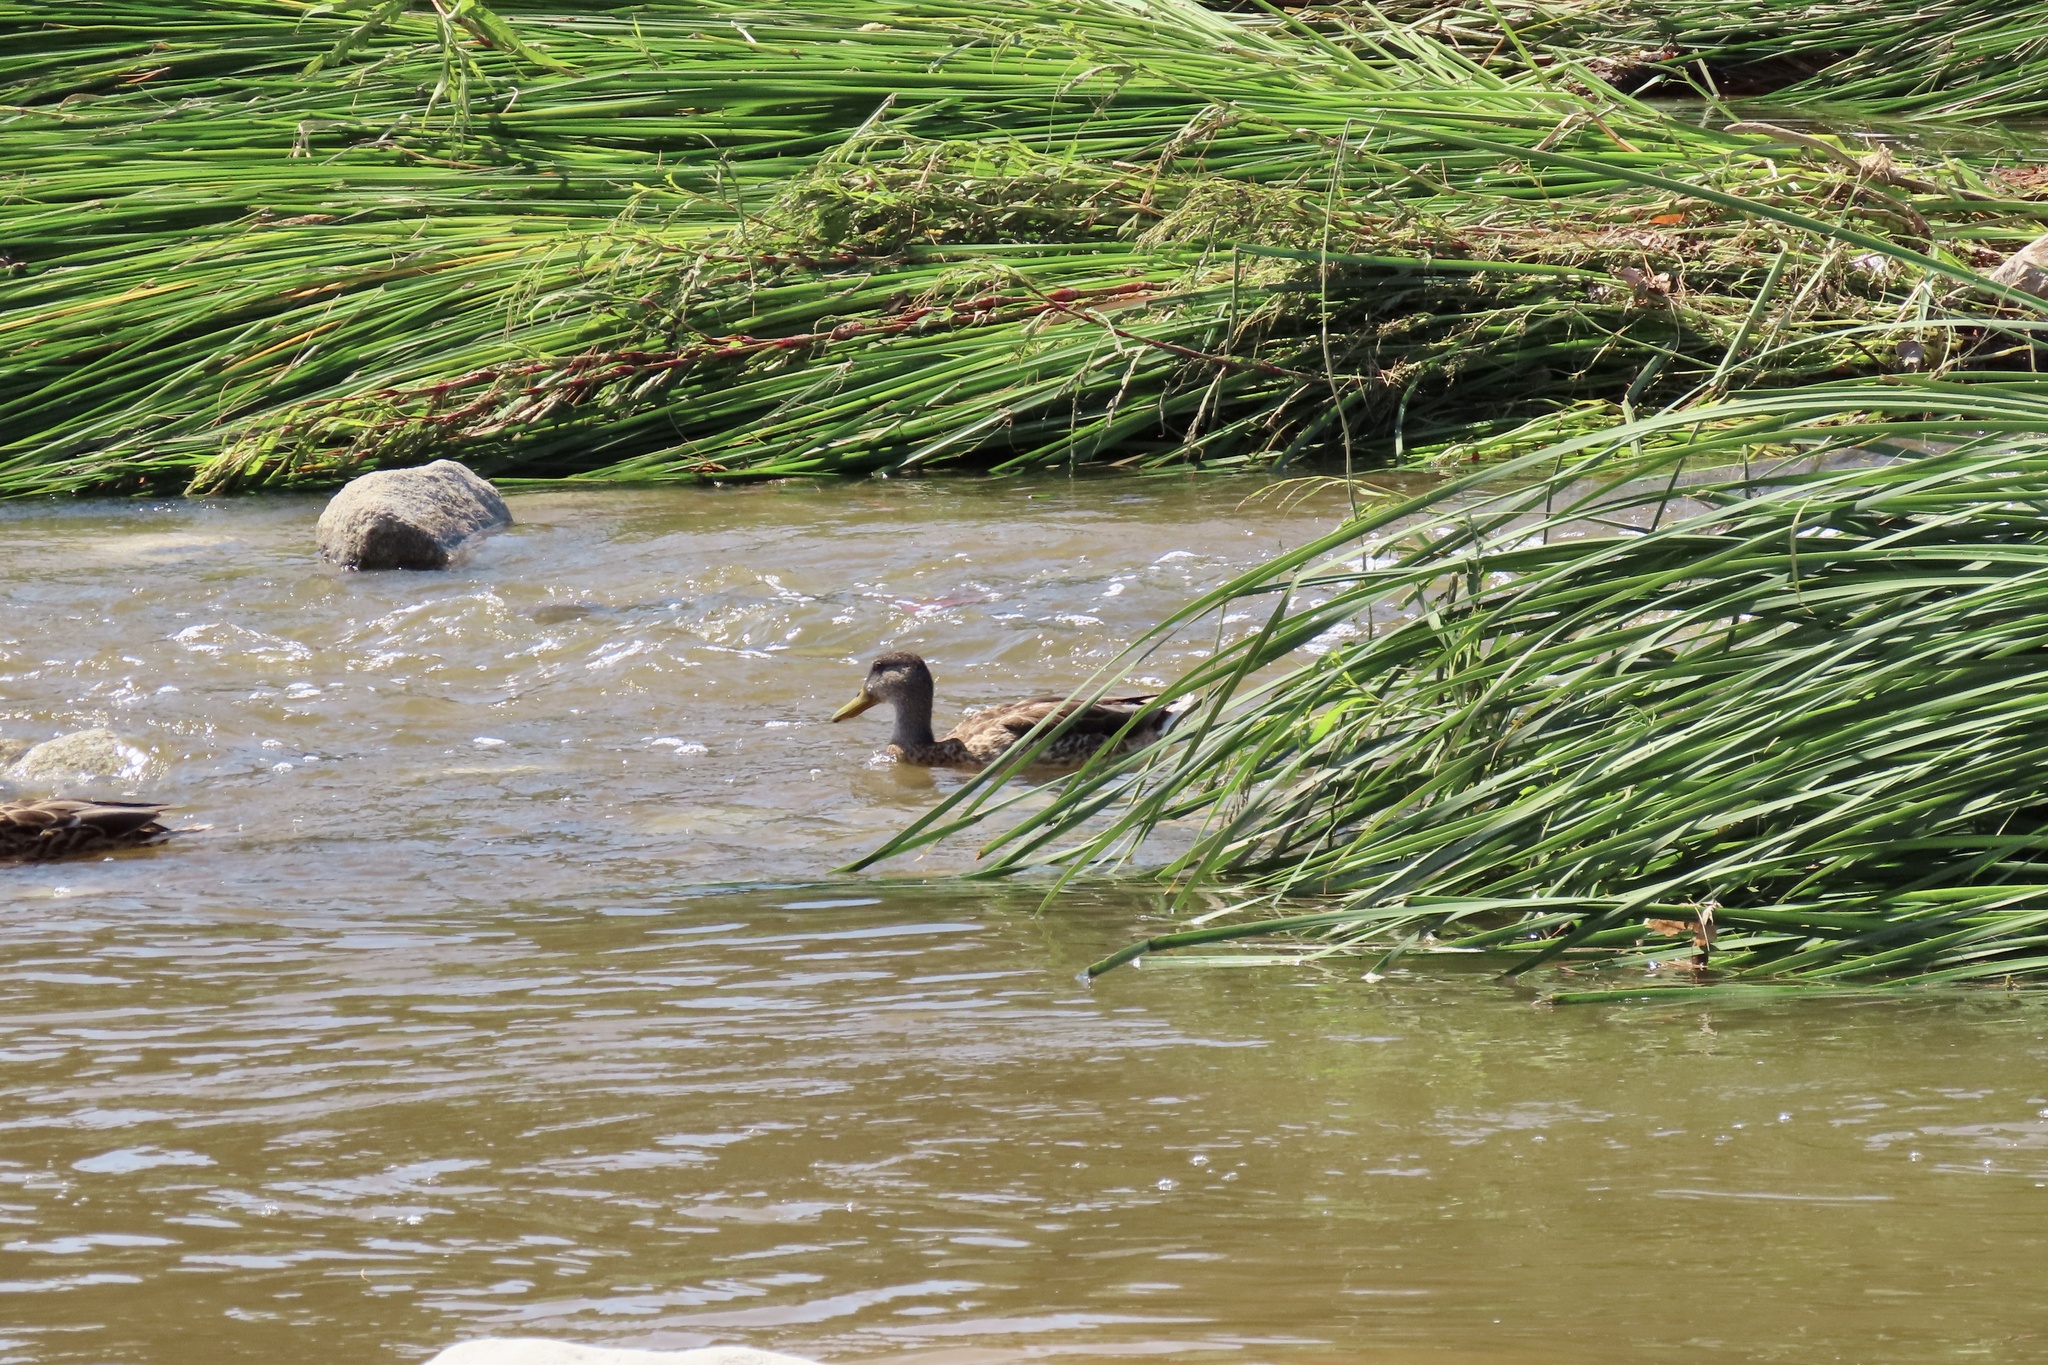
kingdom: Animalia
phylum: Chordata
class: Aves
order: Anseriformes
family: Anatidae
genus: Anas
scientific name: Anas platyrhynchos
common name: Mallard
